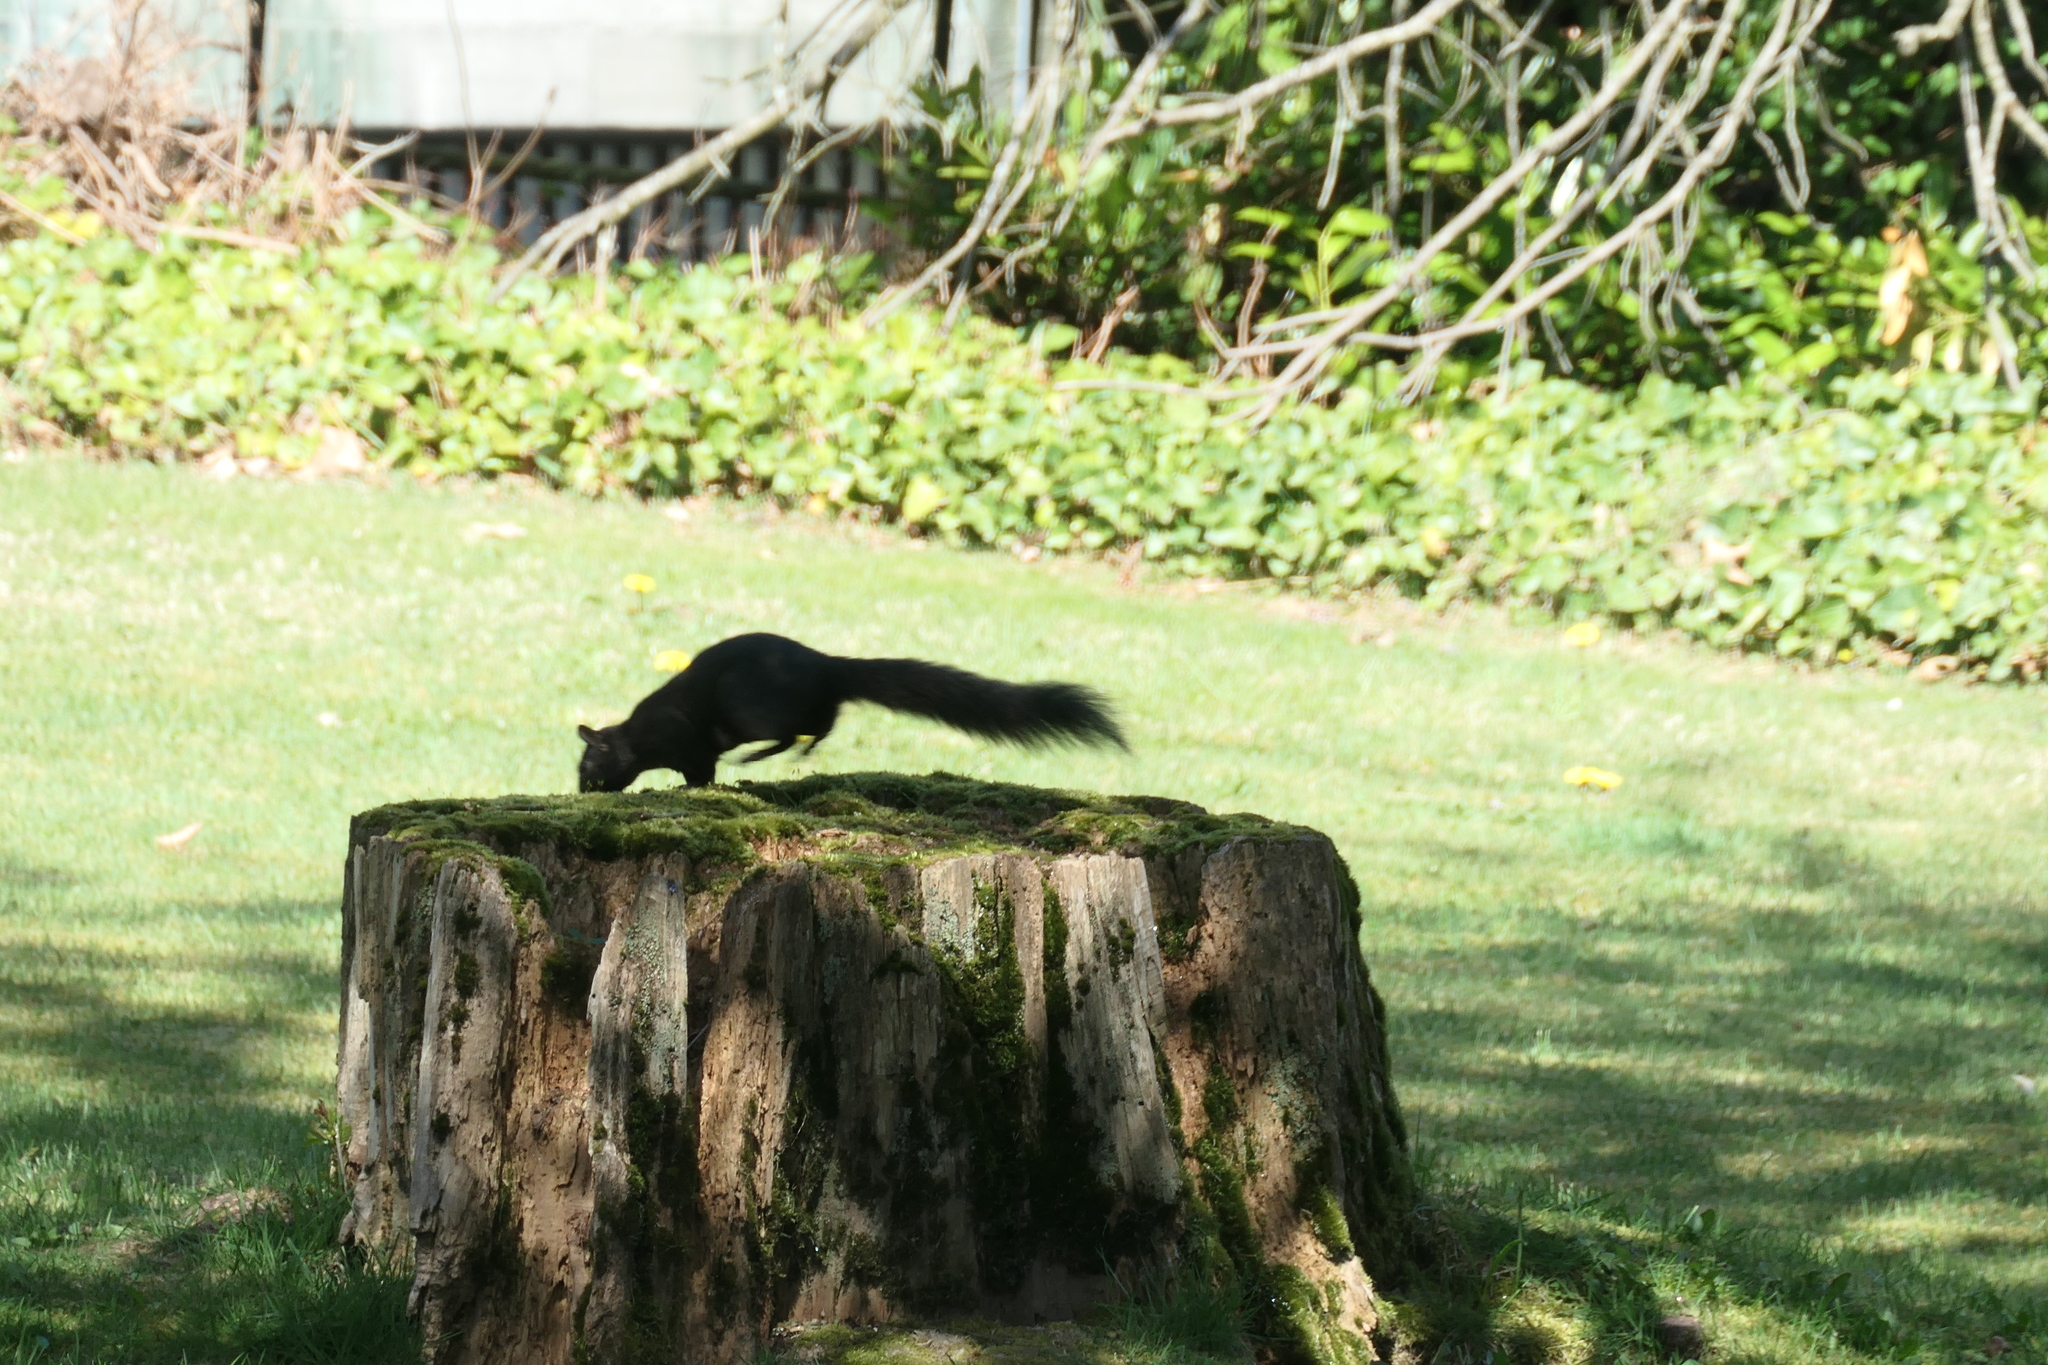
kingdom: Animalia
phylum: Chordata
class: Mammalia
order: Rodentia
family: Sciuridae
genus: Sciurus
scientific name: Sciurus carolinensis
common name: Eastern gray squirrel
